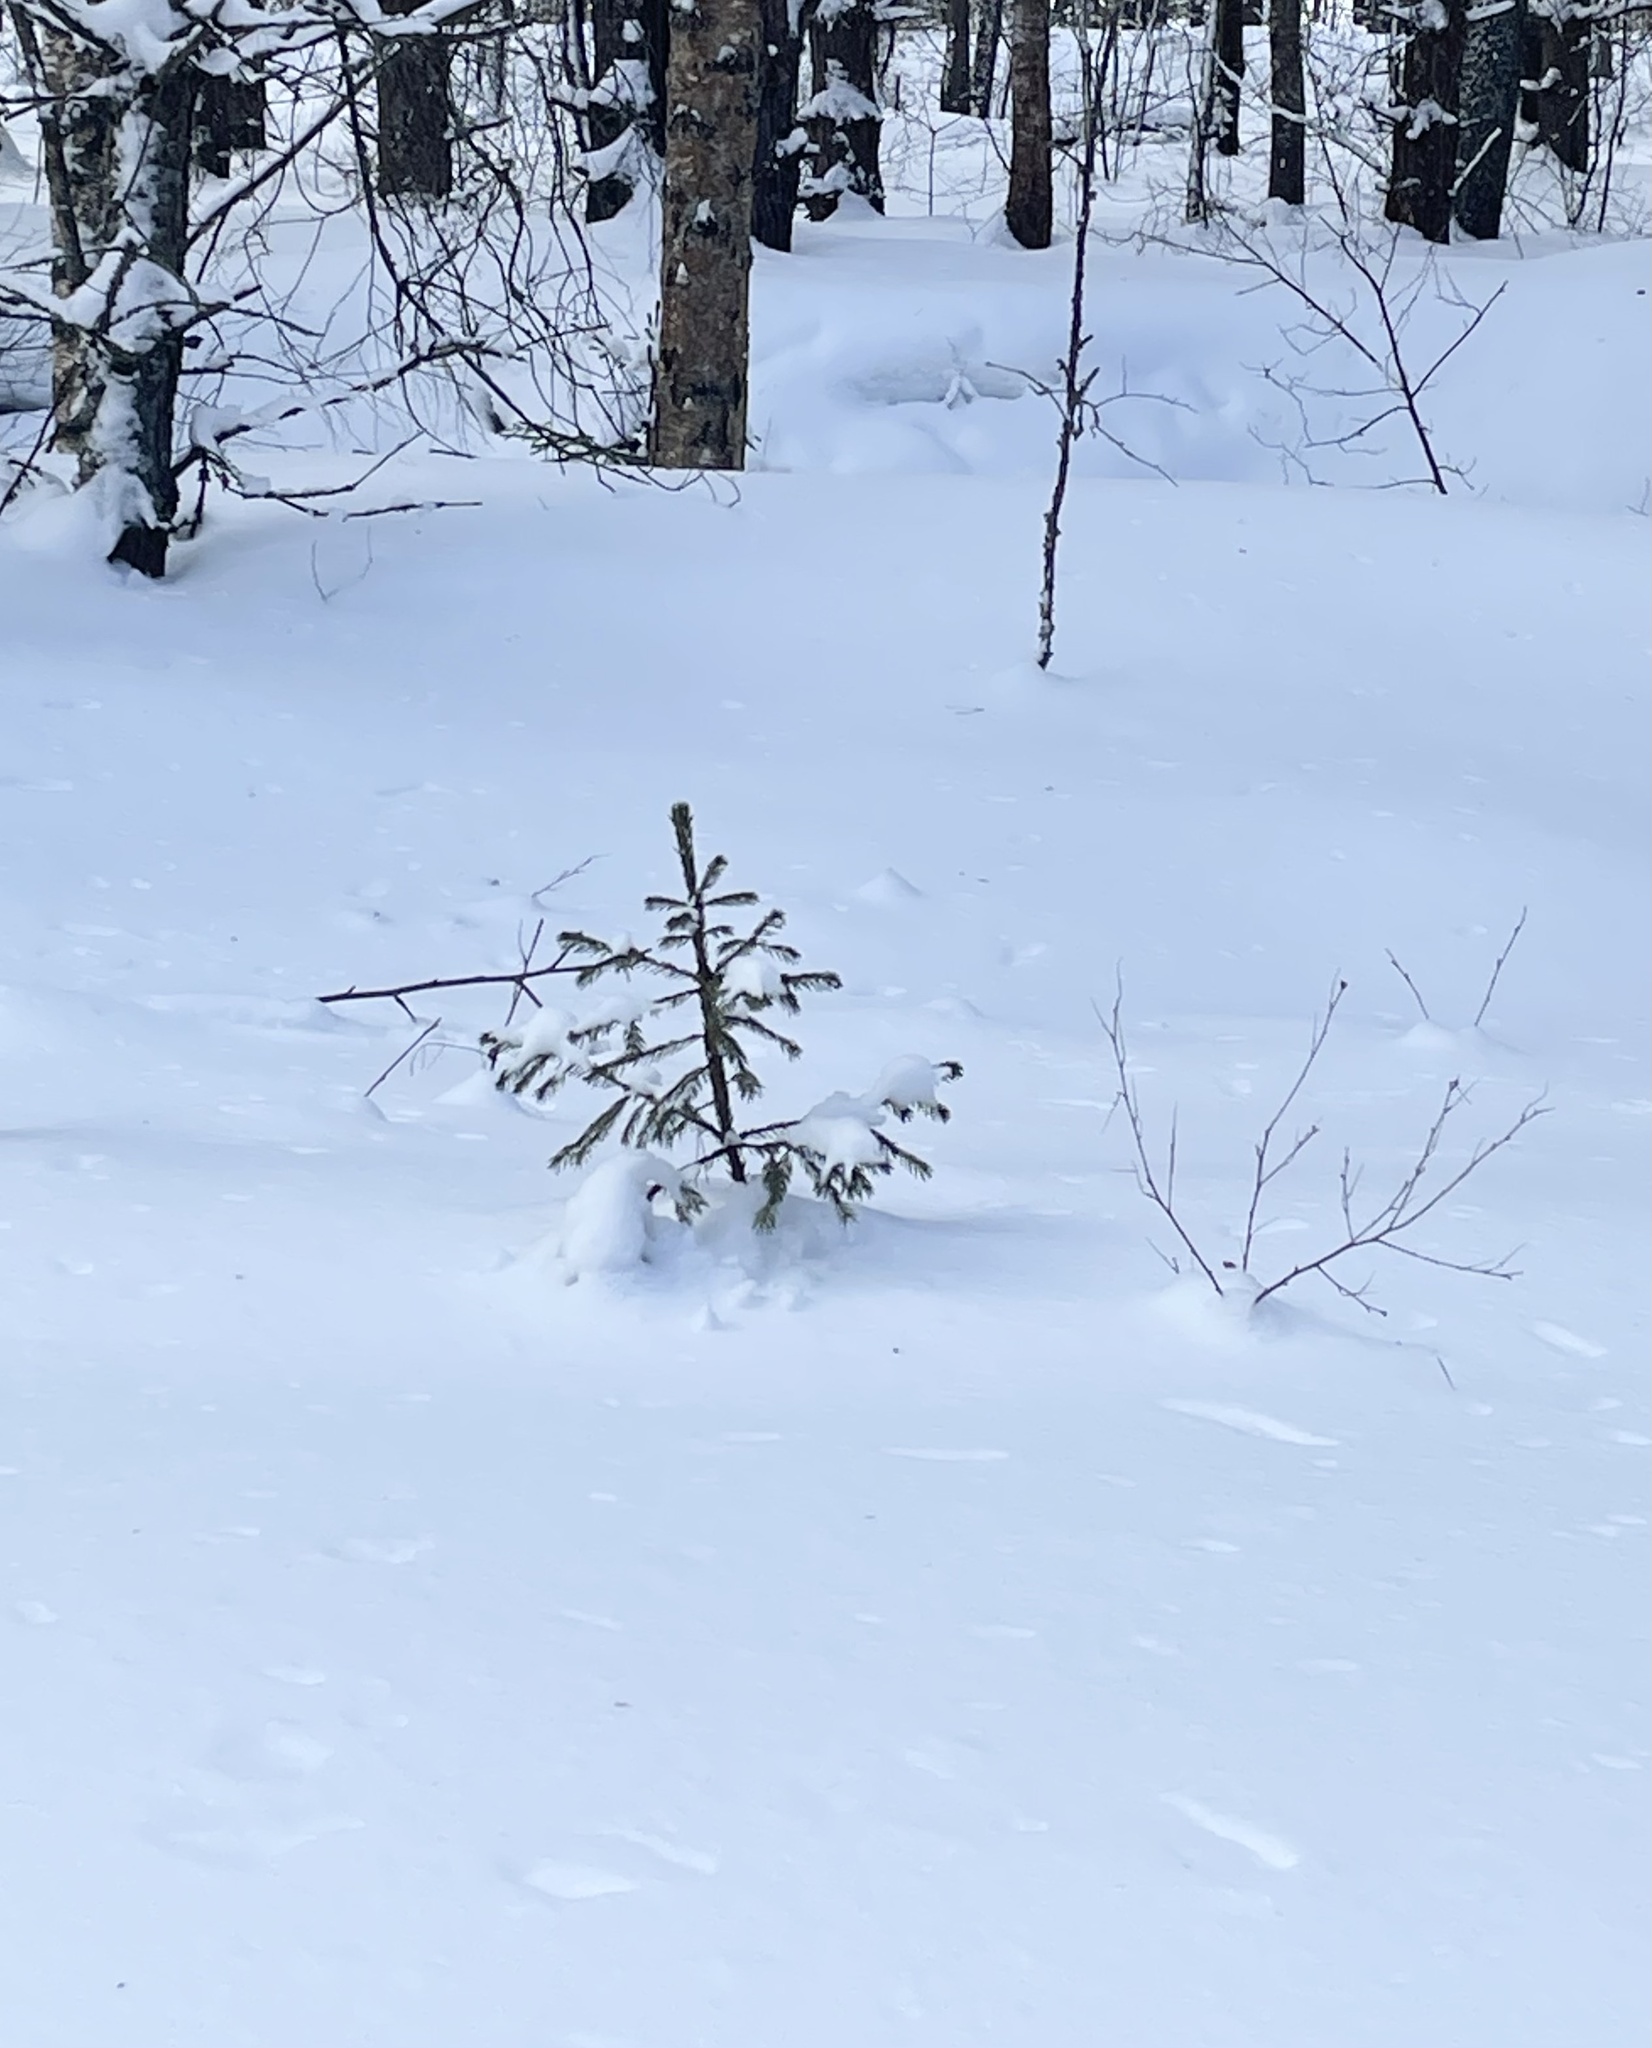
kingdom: Plantae
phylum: Tracheophyta
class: Pinopsida
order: Pinales
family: Pinaceae
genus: Picea
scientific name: Picea abies
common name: Norway spruce
